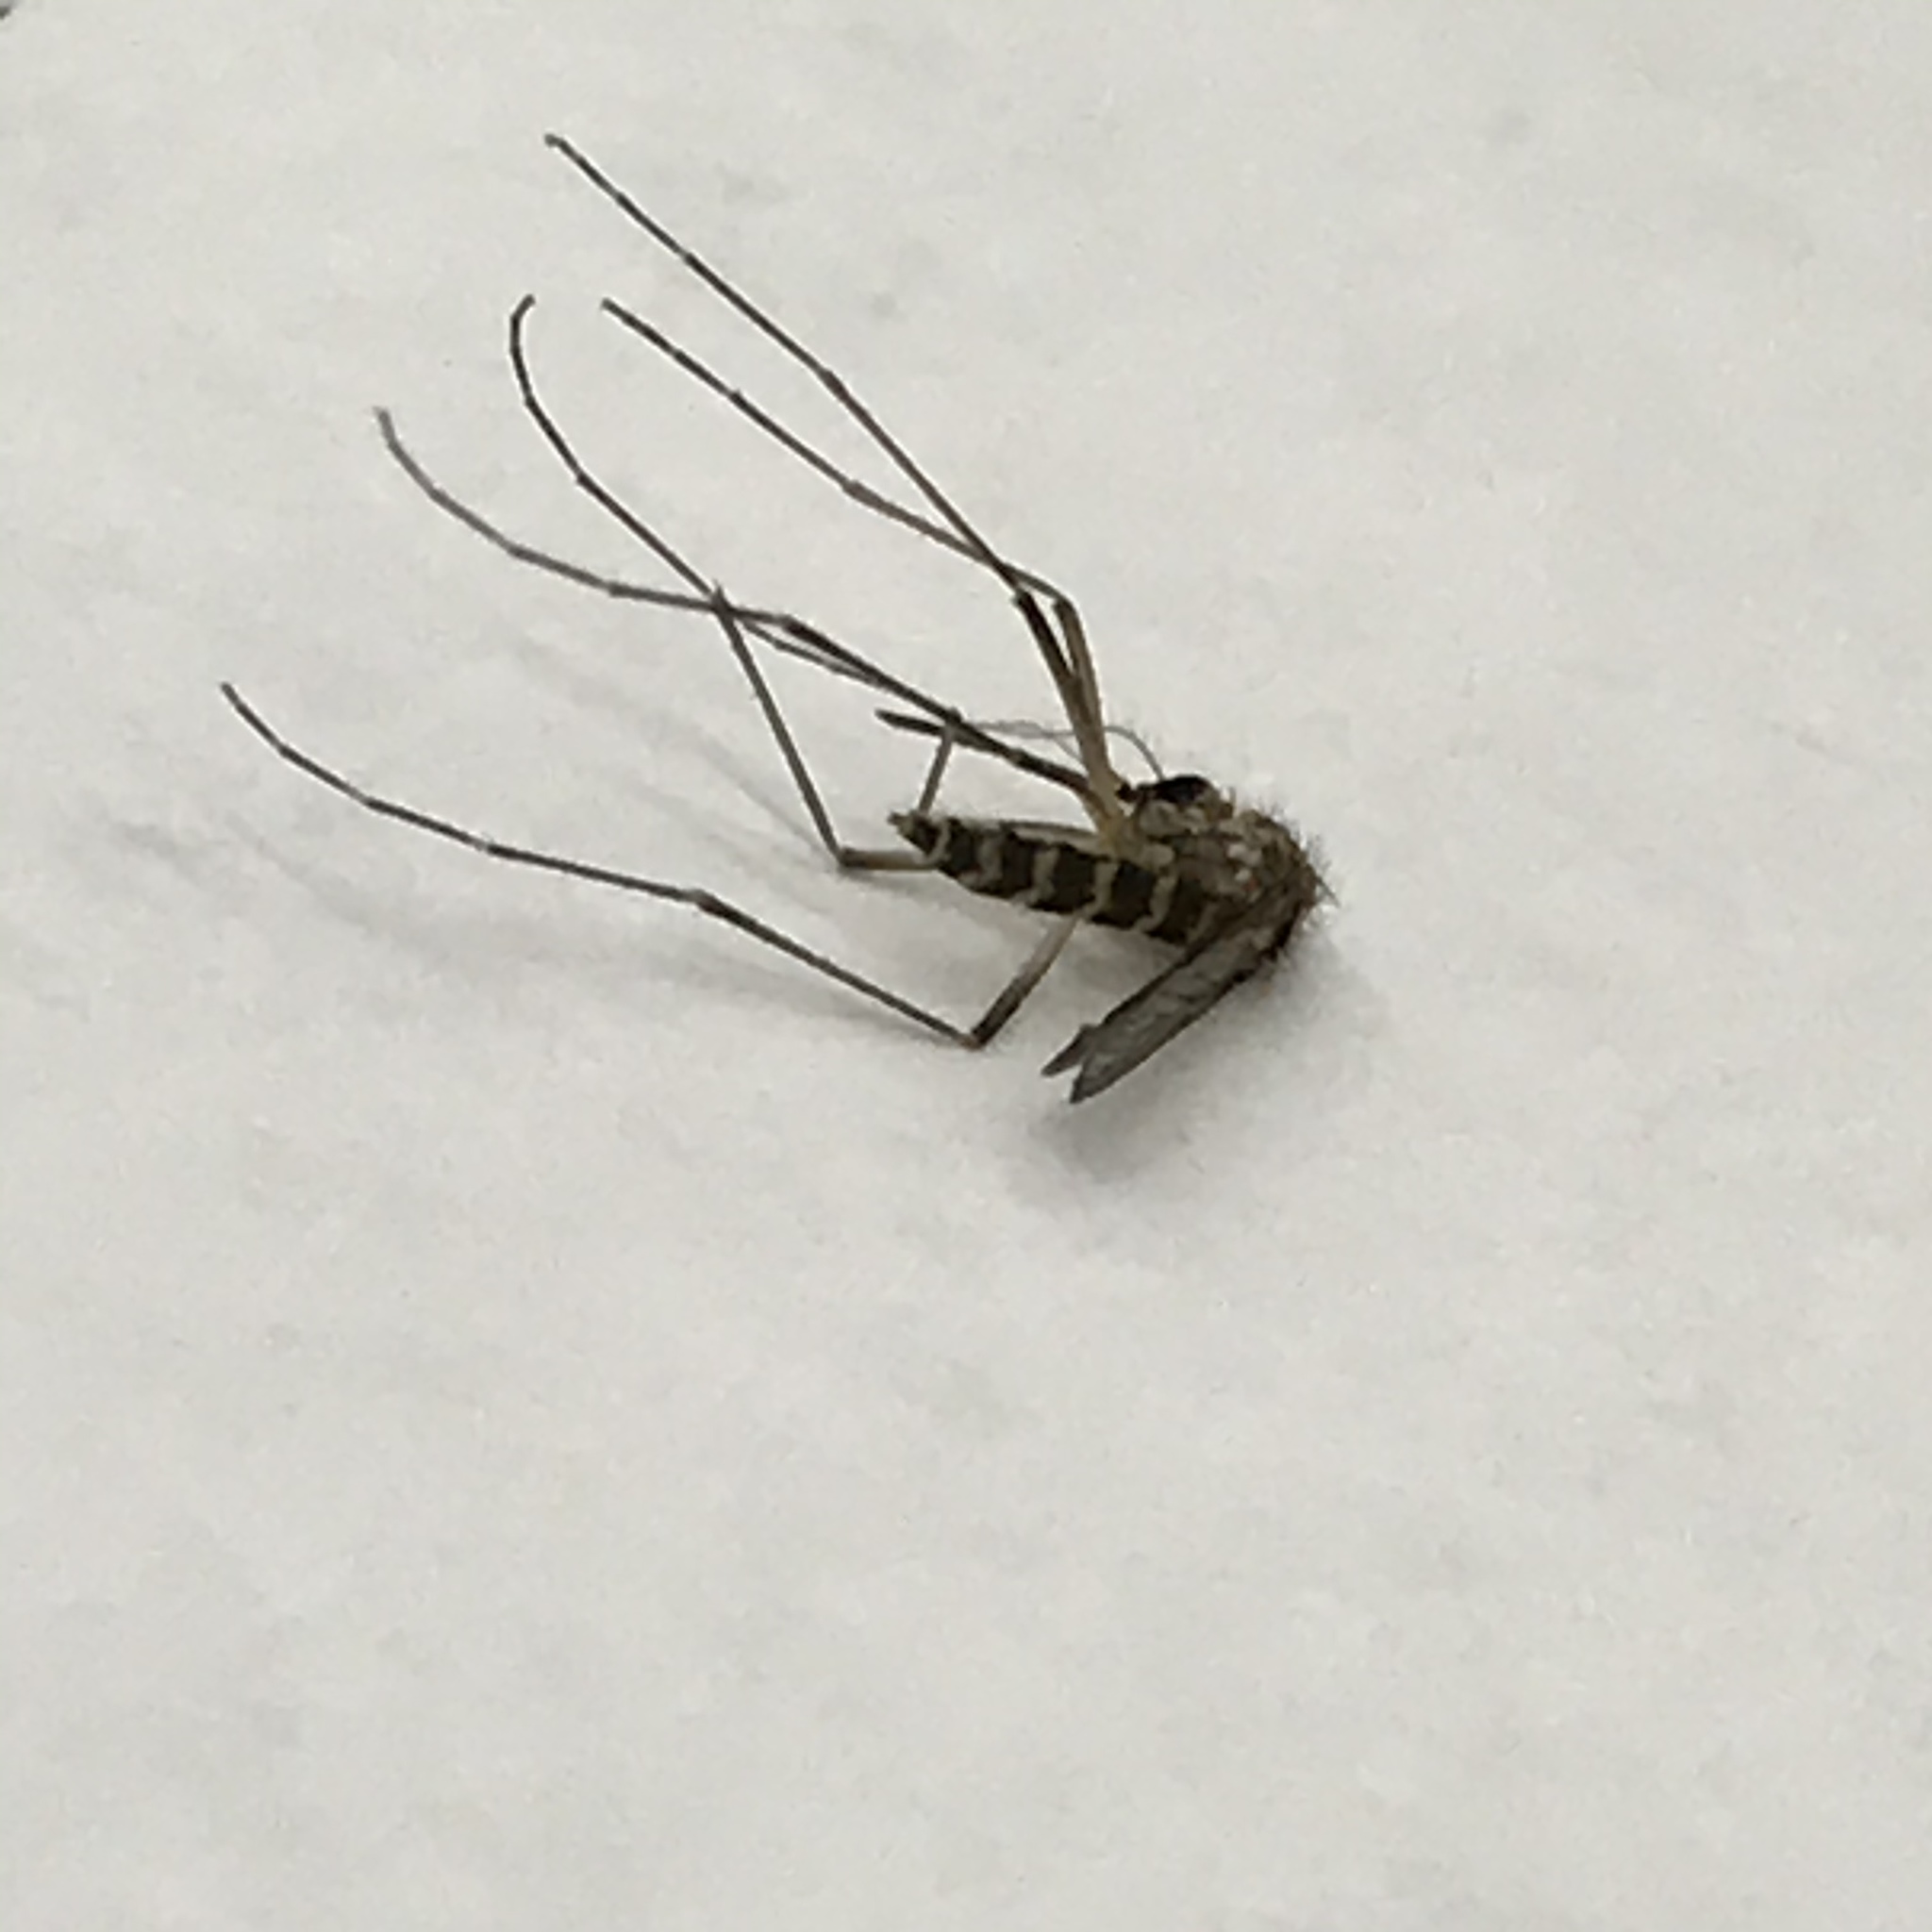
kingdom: Animalia
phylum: Arthropoda
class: Insecta
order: Diptera
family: Culicidae
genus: Aedes
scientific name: Aedes vexans
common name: Inland floodwater mosquito
